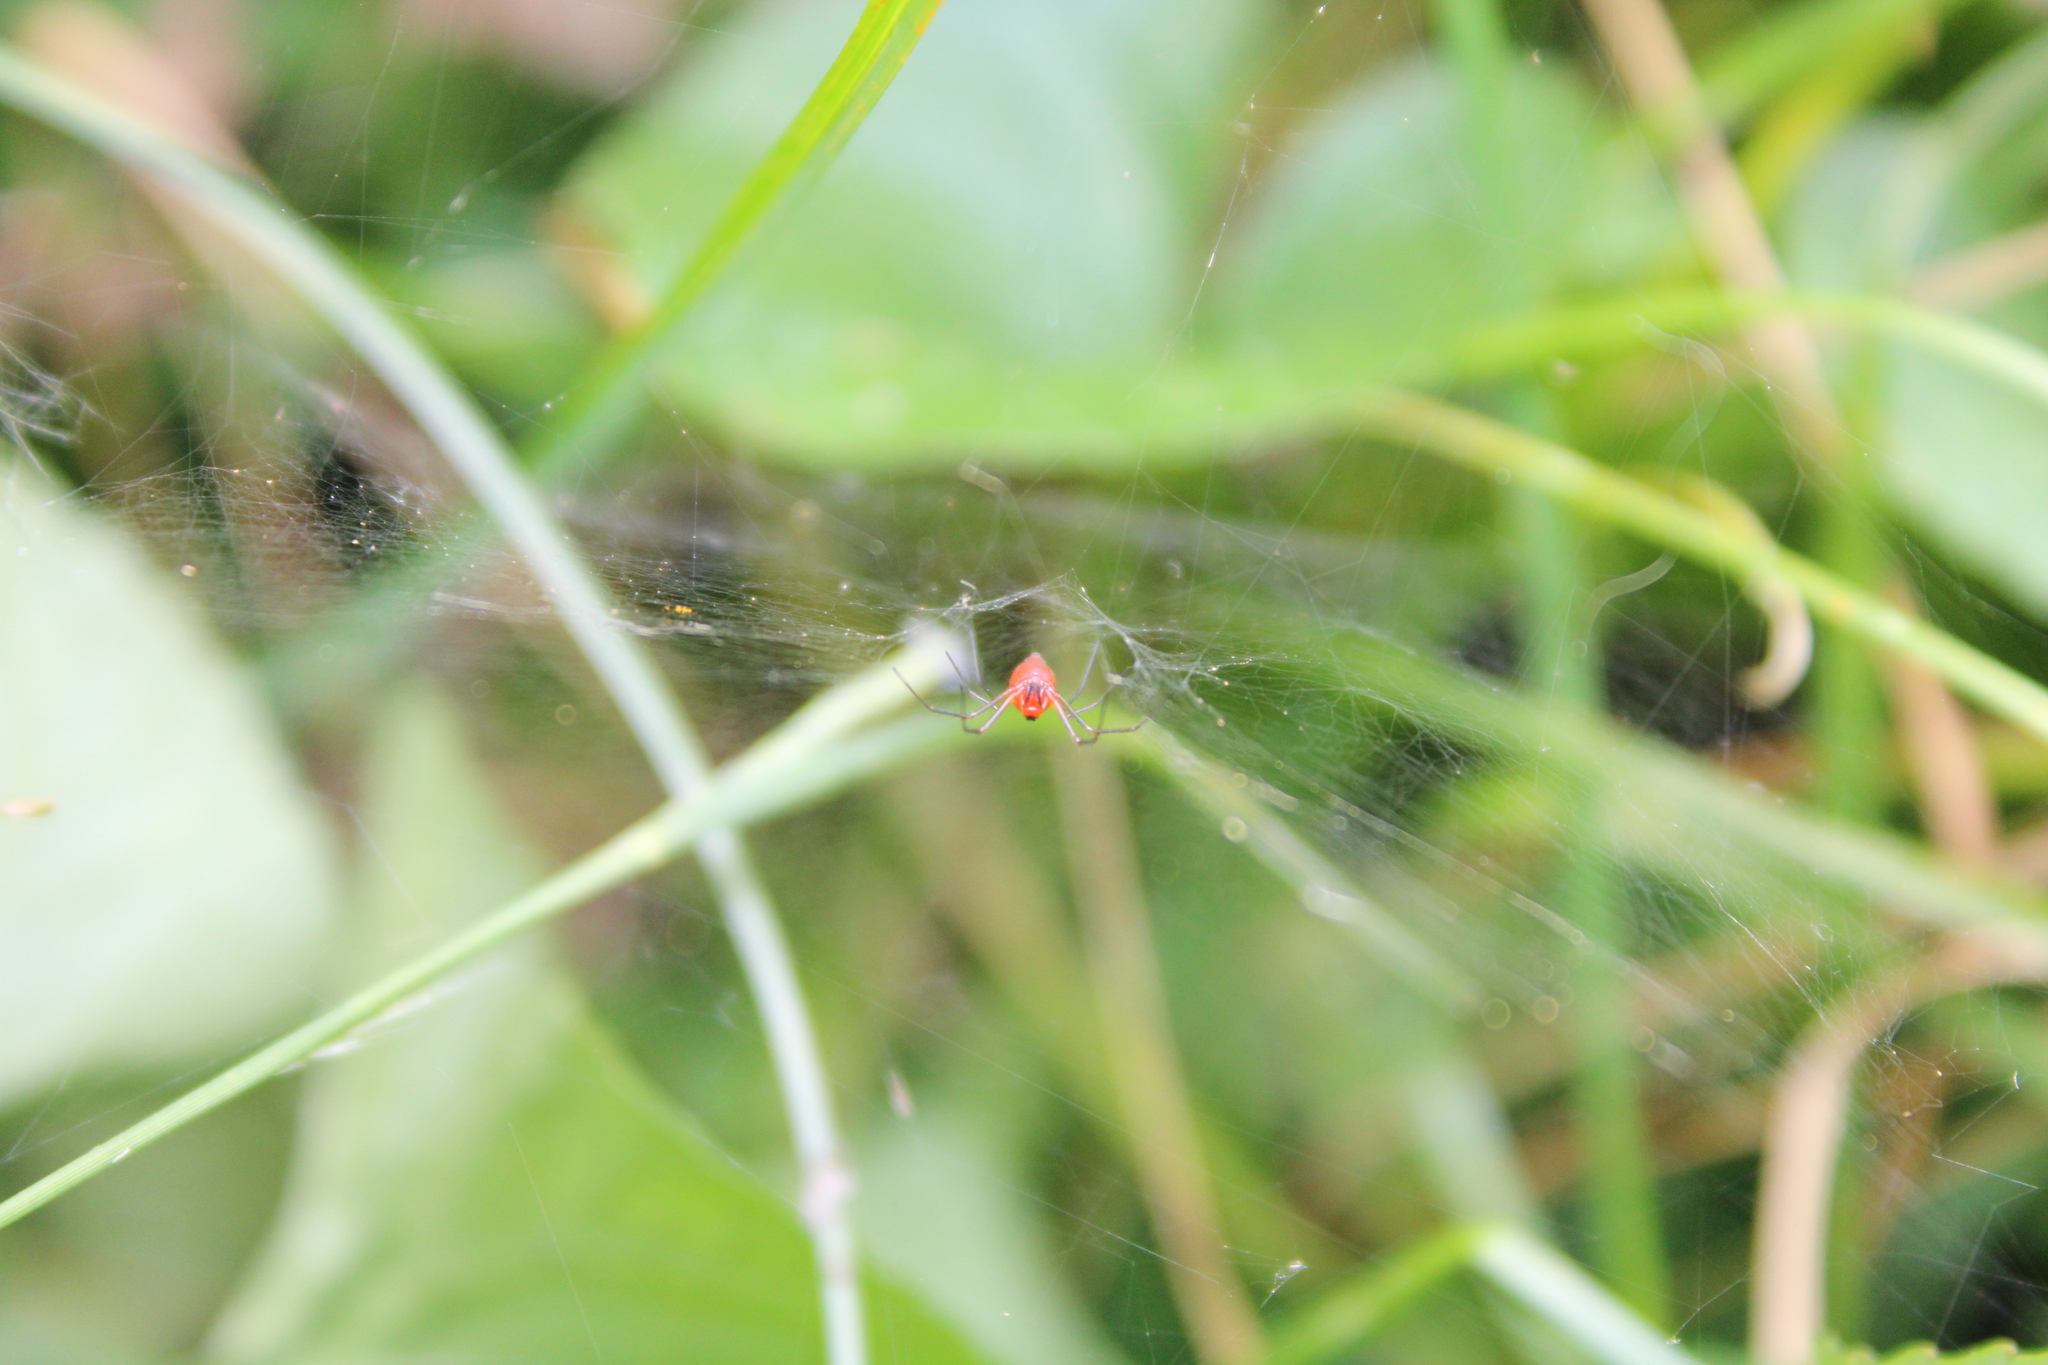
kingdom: Animalia
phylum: Arthropoda
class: Arachnida
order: Araneae
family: Linyphiidae
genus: Florinda
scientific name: Florinda coccinea
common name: Black-tailed red sheetweaver
